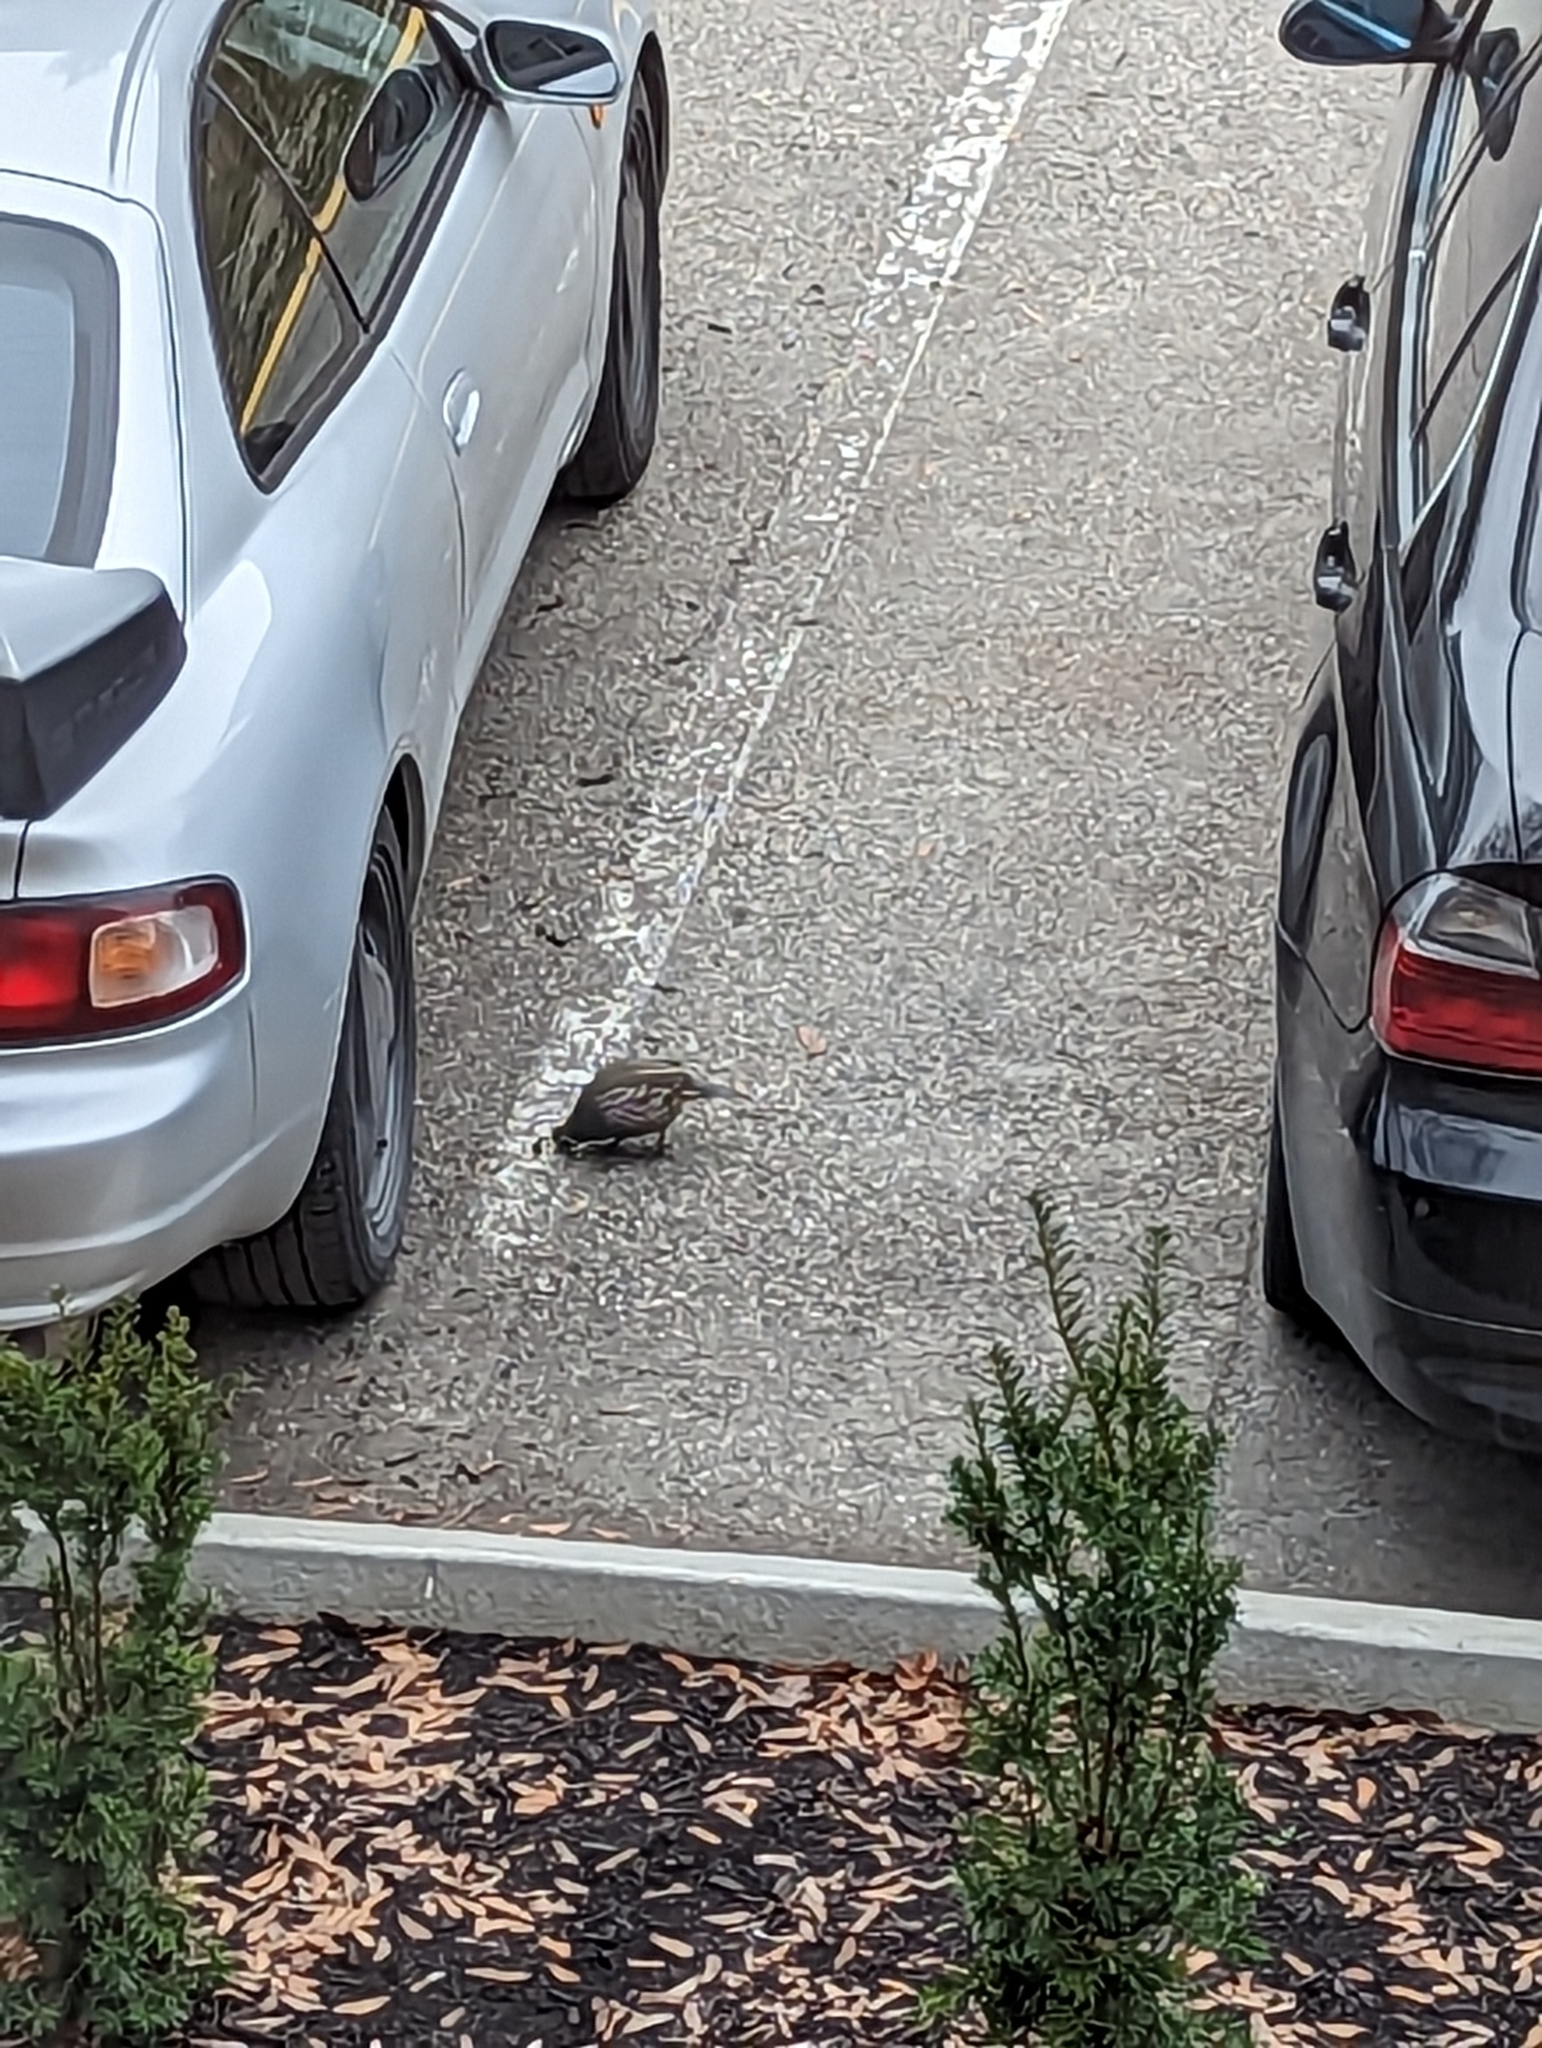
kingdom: Animalia
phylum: Chordata
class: Aves
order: Galliformes
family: Odontophoridae
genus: Callipepla
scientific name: Callipepla californica
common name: California quail
